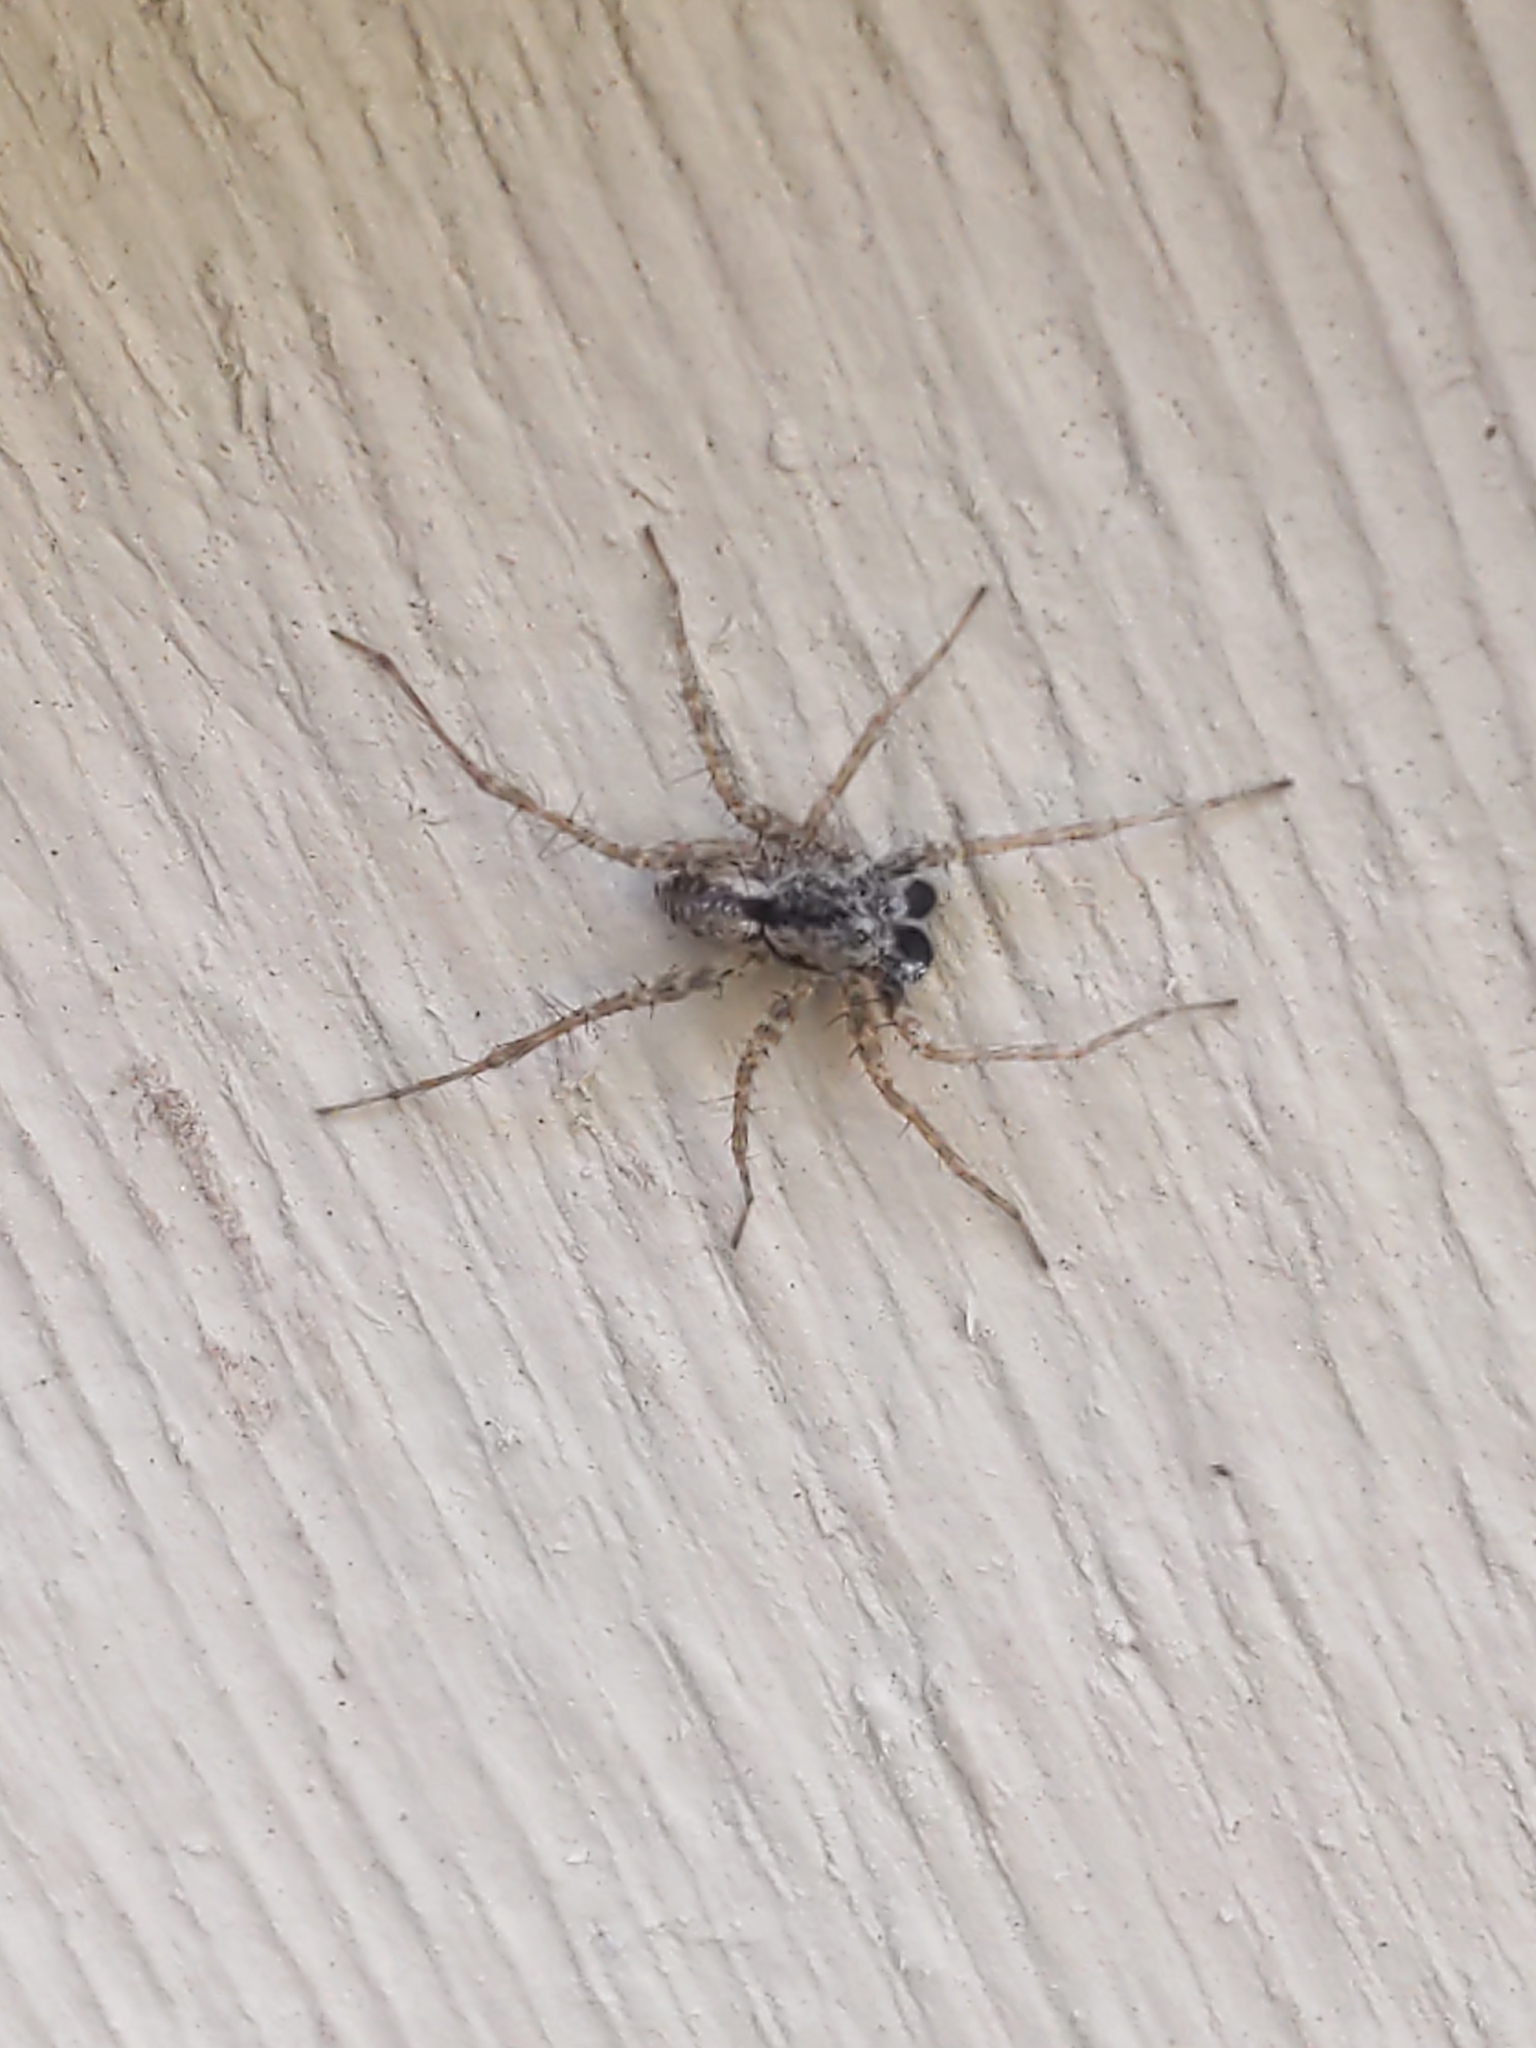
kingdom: Animalia
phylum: Arthropoda
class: Arachnida
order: Araneae
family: Lycosidae
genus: Pardosa
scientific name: Pardosa
